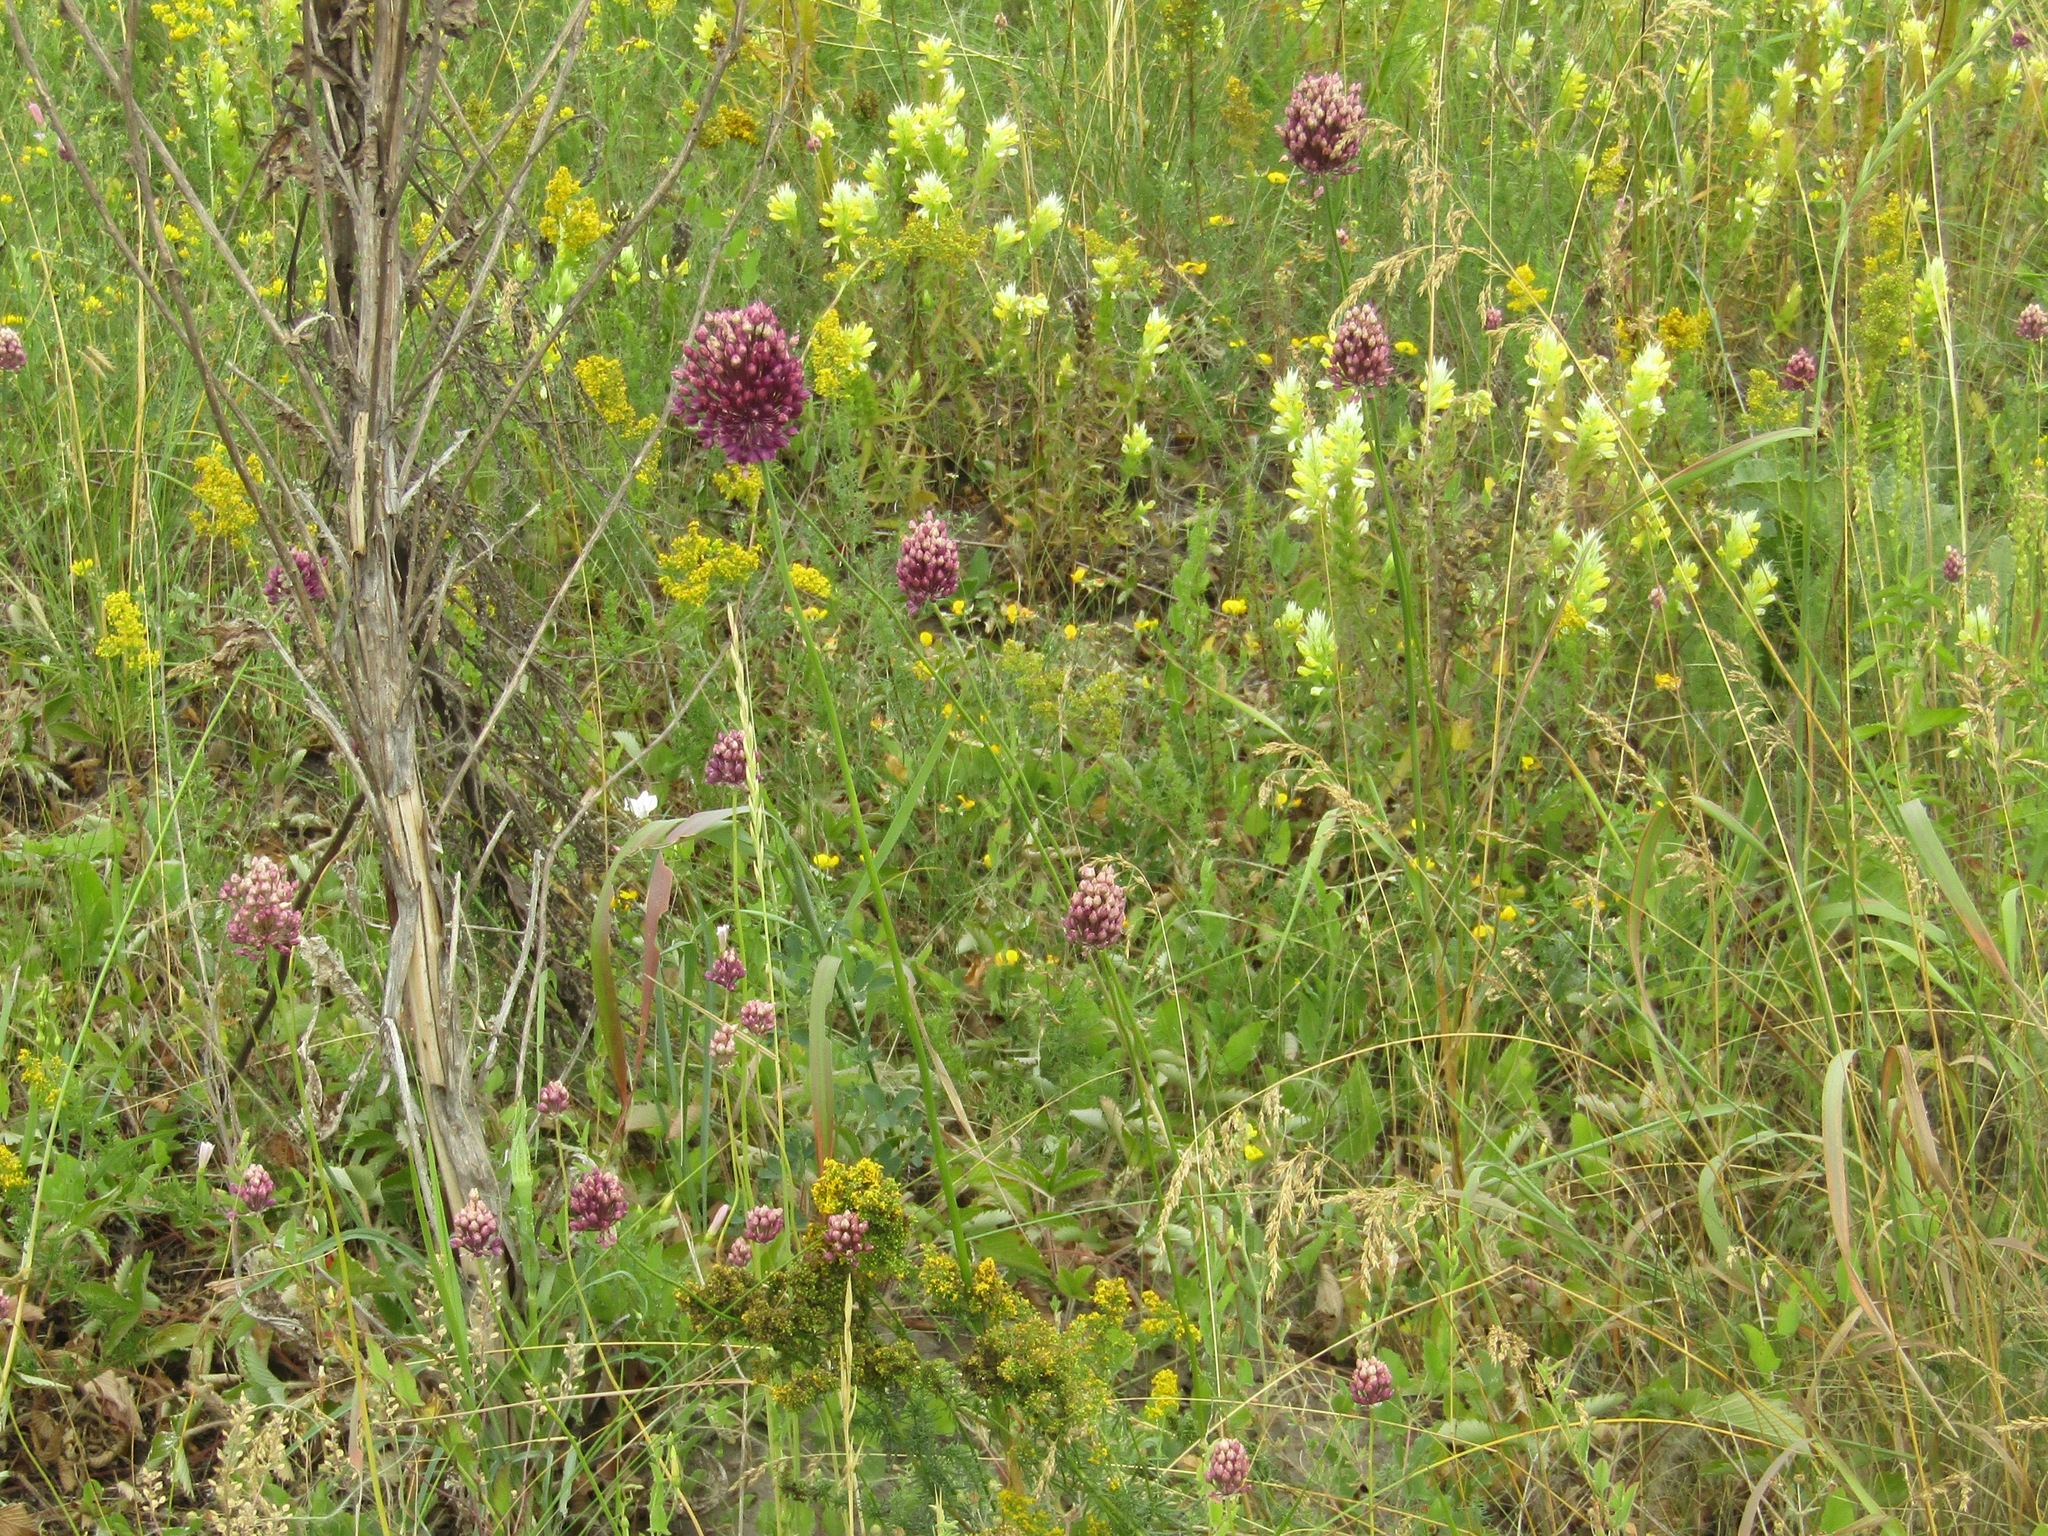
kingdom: Plantae
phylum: Tracheophyta
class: Liliopsida
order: Asparagales
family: Amaryllidaceae
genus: Allium
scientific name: Allium sphaerocephalon
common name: Round-headed leek
